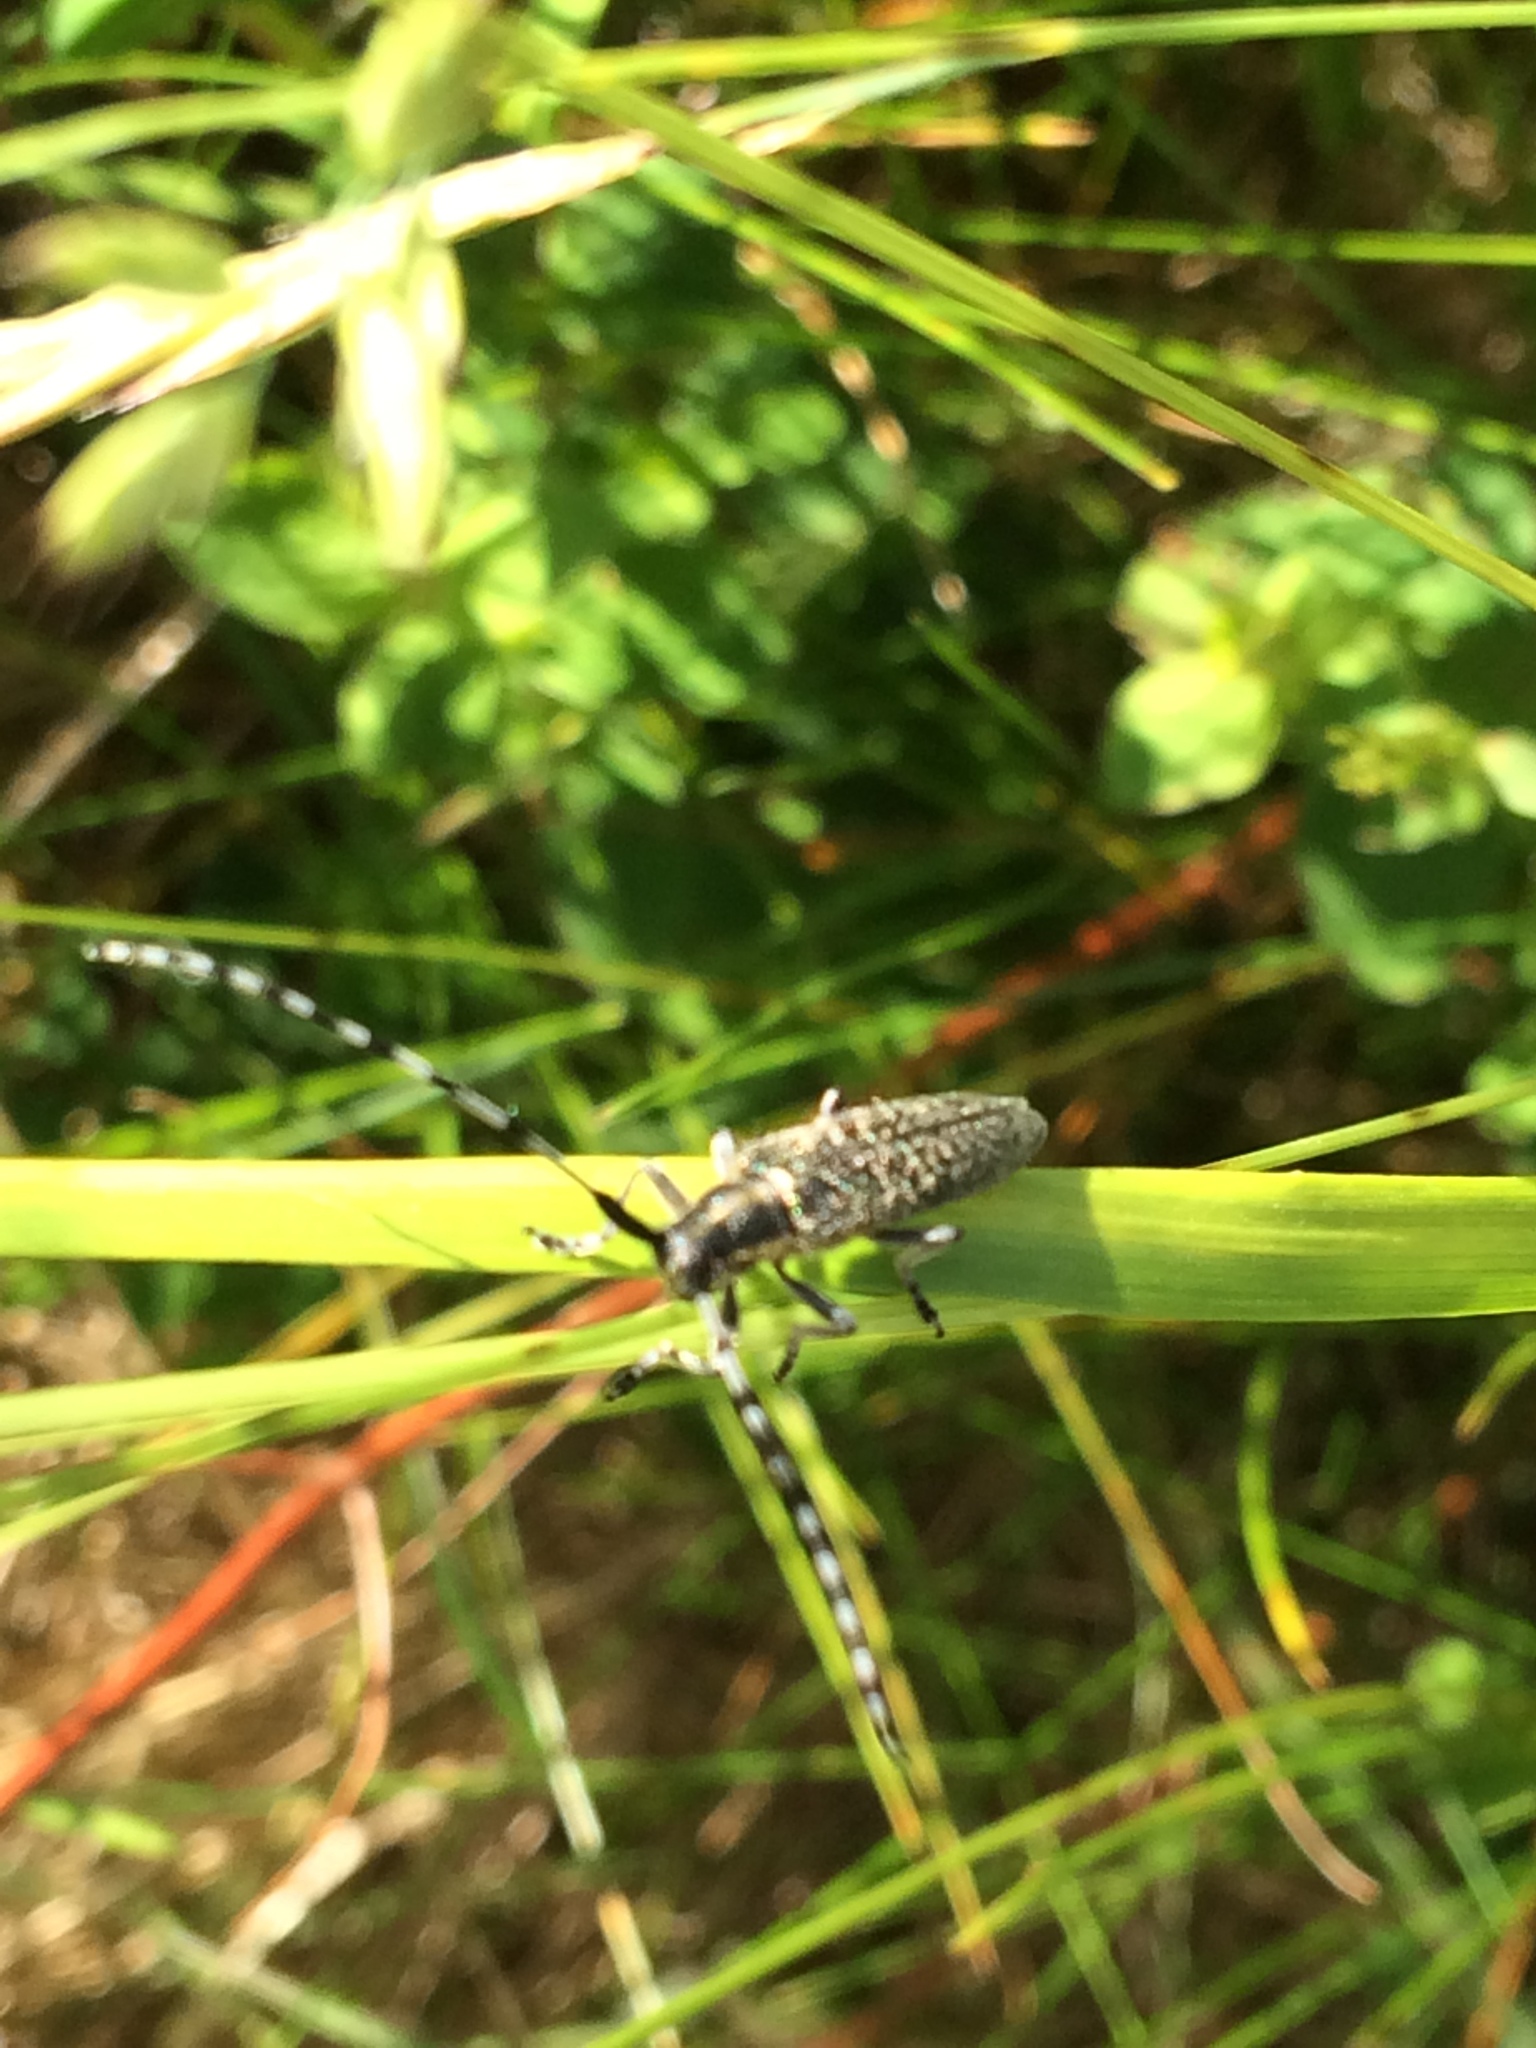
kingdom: Animalia
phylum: Arthropoda
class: Insecta
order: Coleoptera
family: Cerambycidae
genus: Agapanthia
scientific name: Agapanthia villosoviridescens
